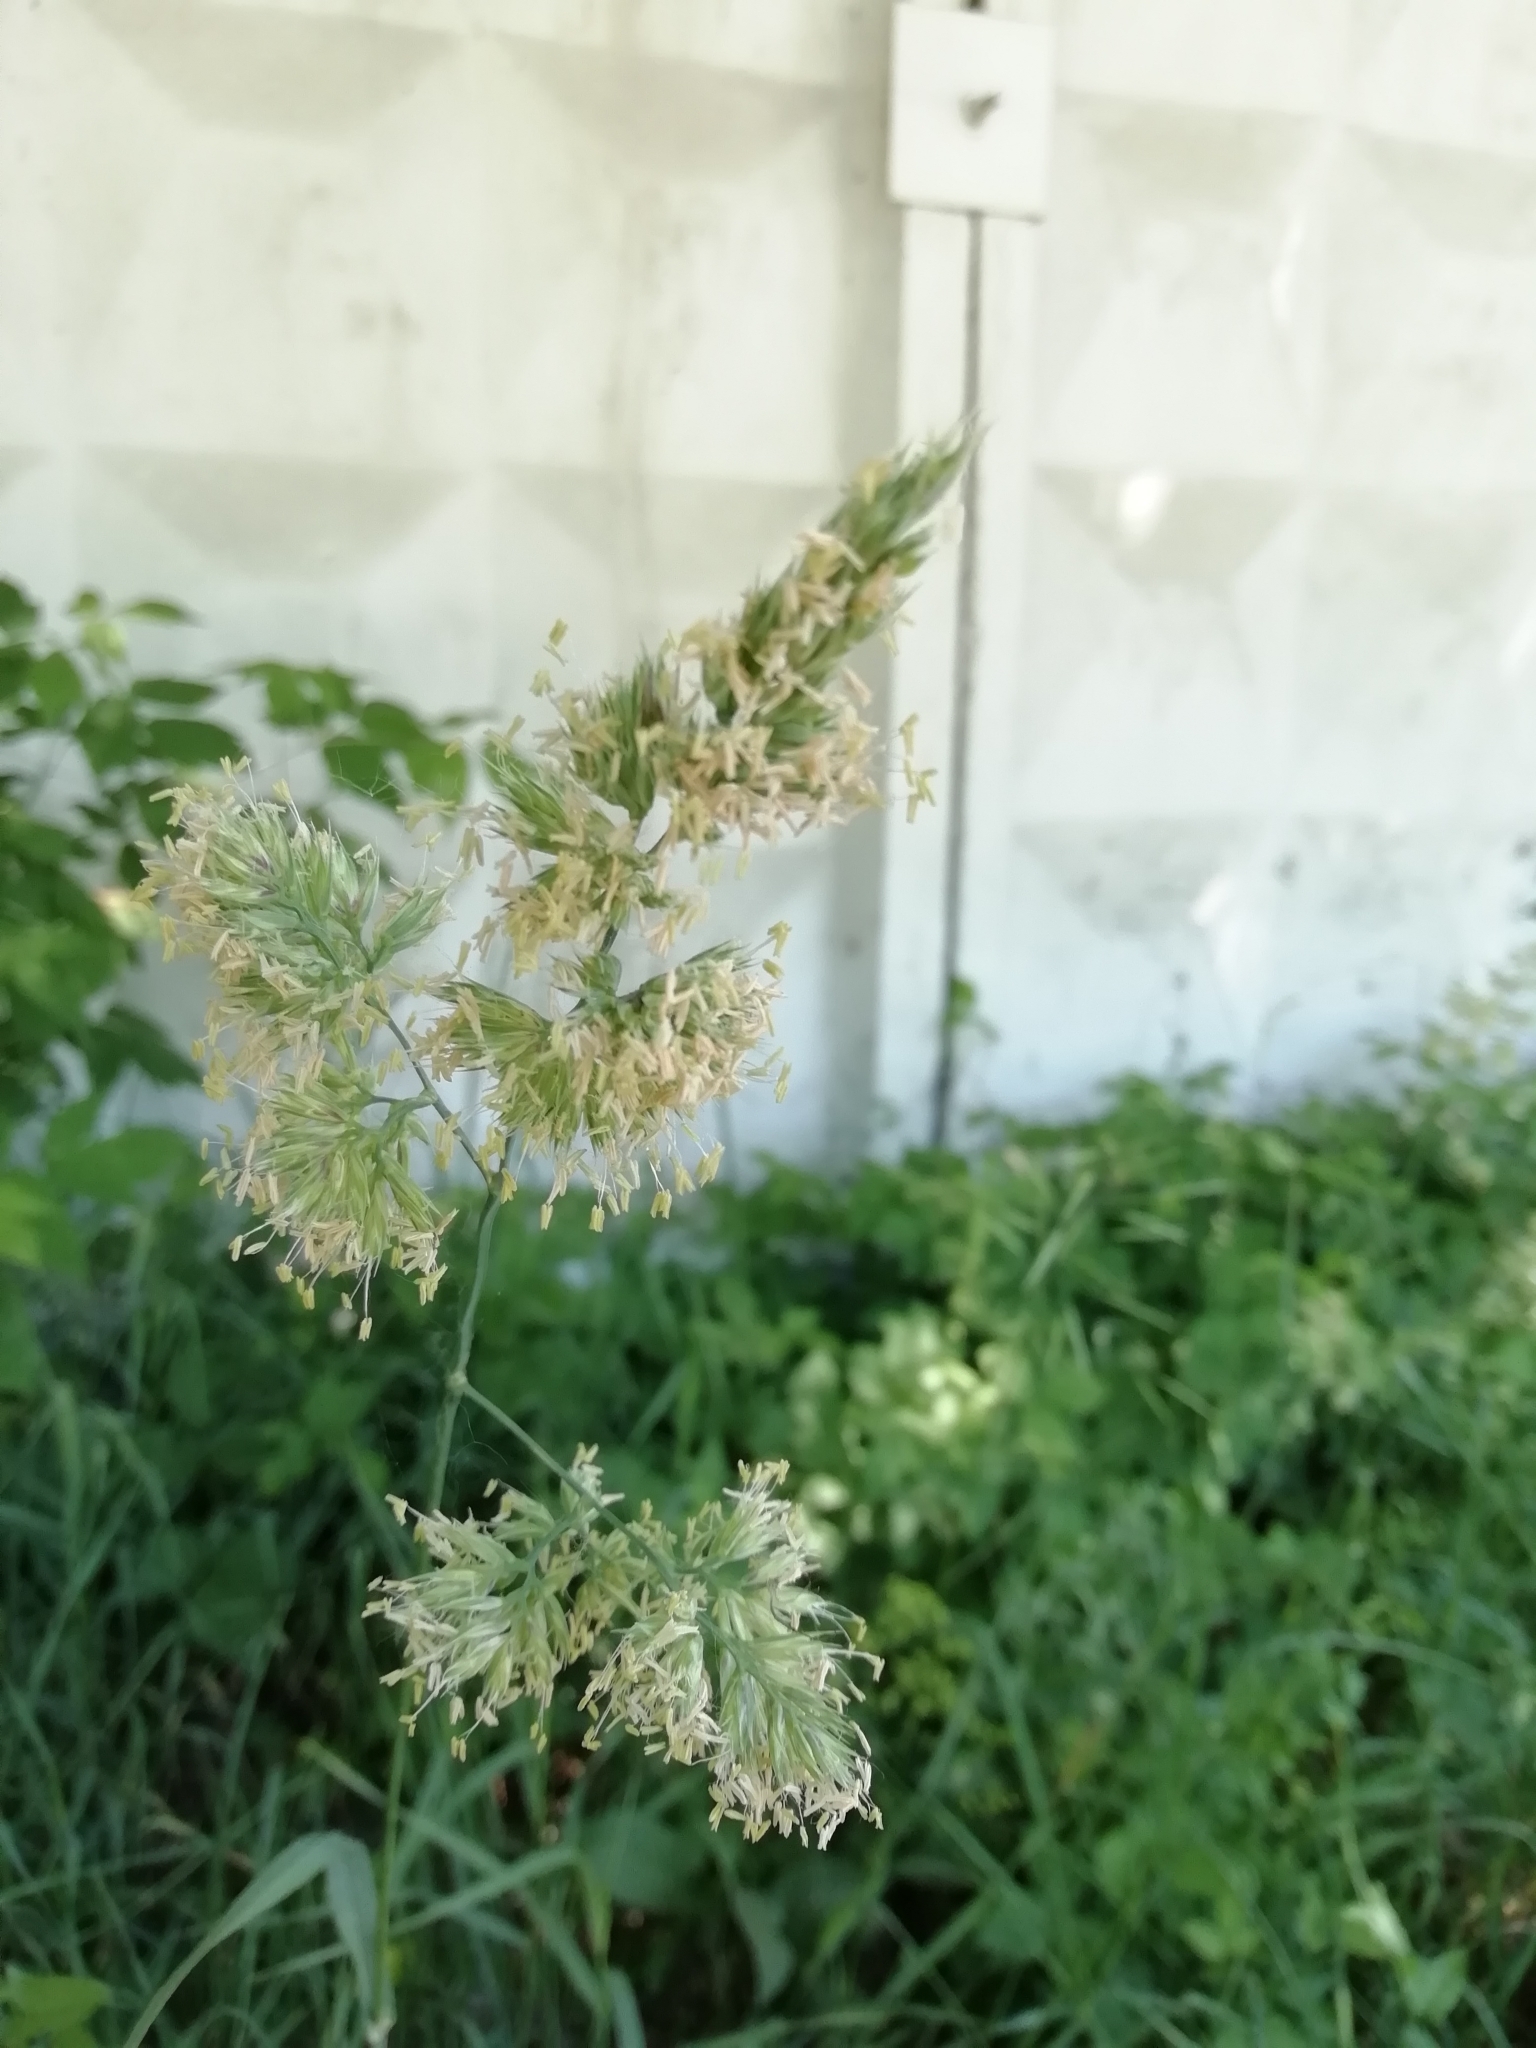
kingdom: Plantae
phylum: Tracheophyta
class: Liliopsida
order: Poales
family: Poaceae
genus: Dactylis
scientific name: Dactylis glomerata
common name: Orchardgrass
